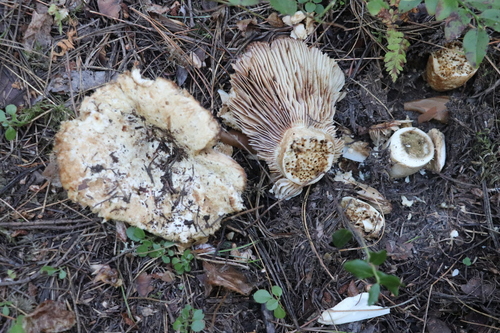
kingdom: Fungi
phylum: Basidiomycota
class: Agaricomycetes
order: Russulales
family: Russulaceae
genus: Russula
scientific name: Russula delica
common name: Milk white brittlegill
